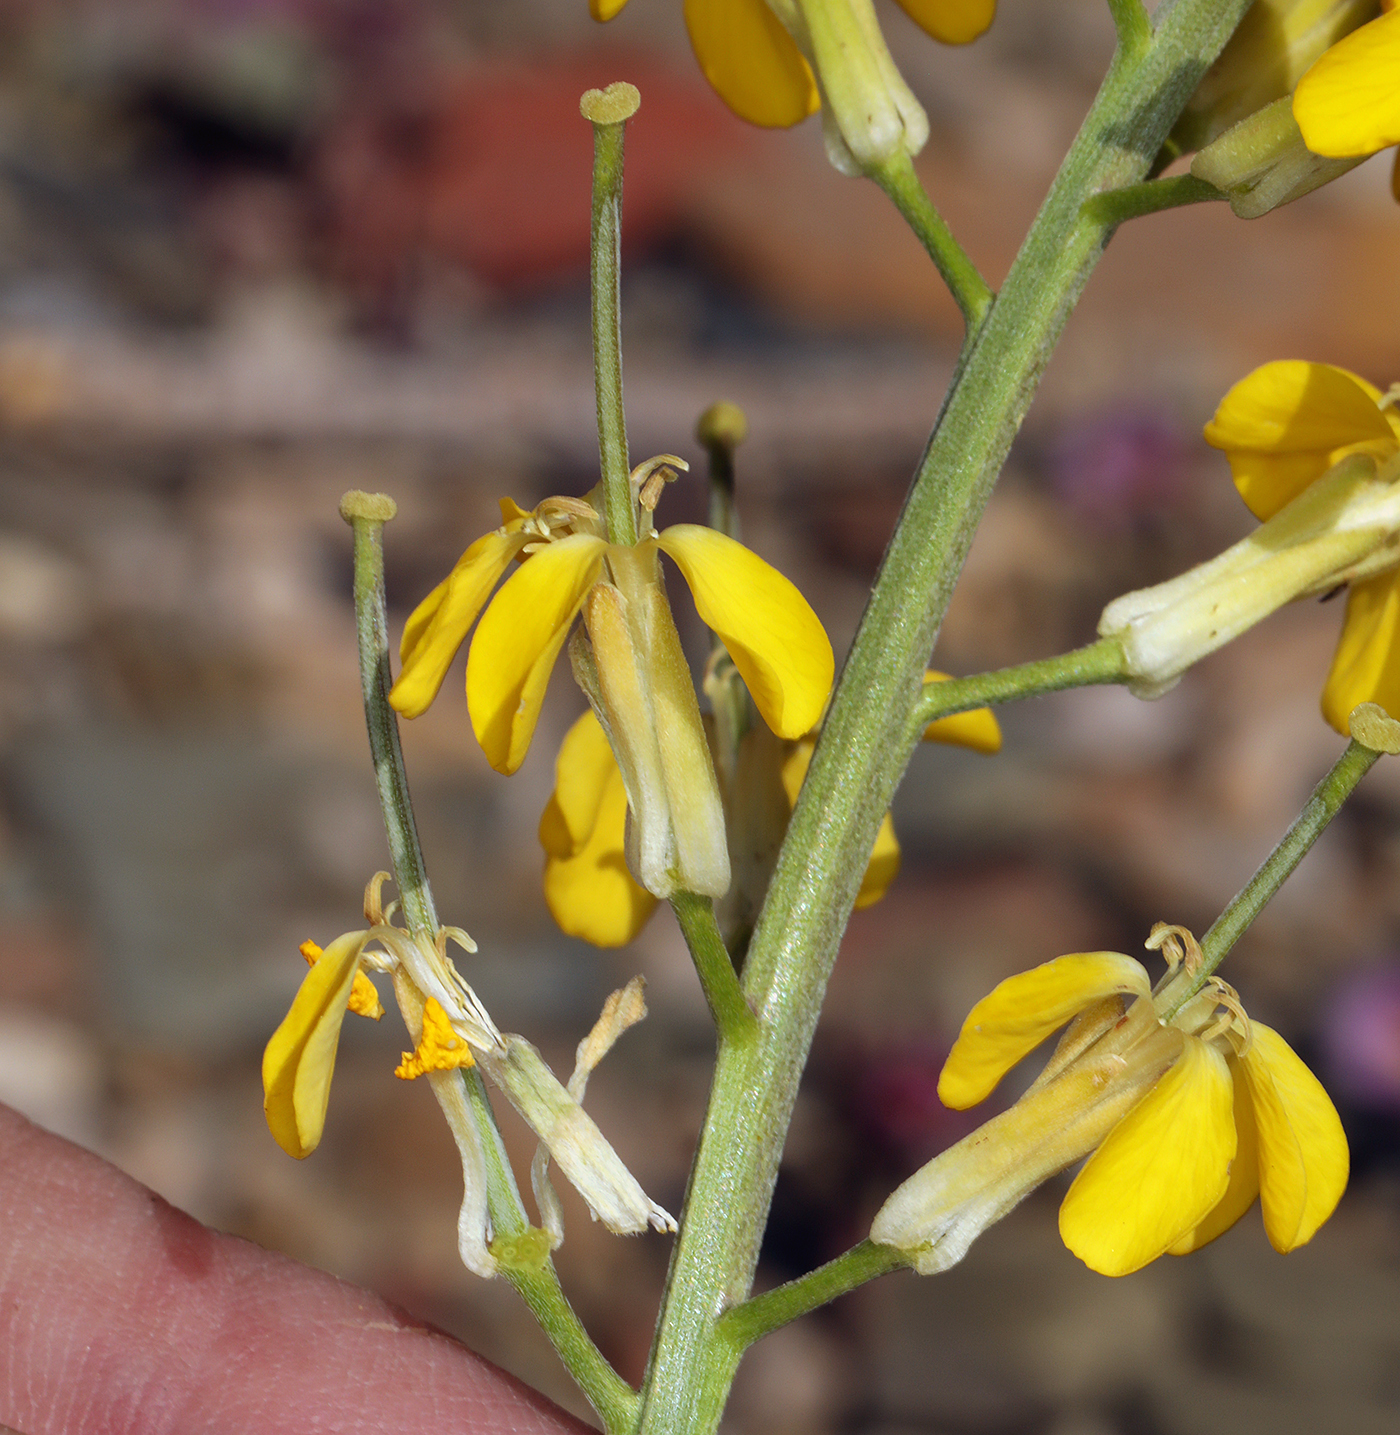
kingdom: Plantae
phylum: Tracheophyta
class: Magnoliopsida
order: Brassicales
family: Brassicaceae
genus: Erysimum
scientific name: Erysimum capitatum
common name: Western wallflower
